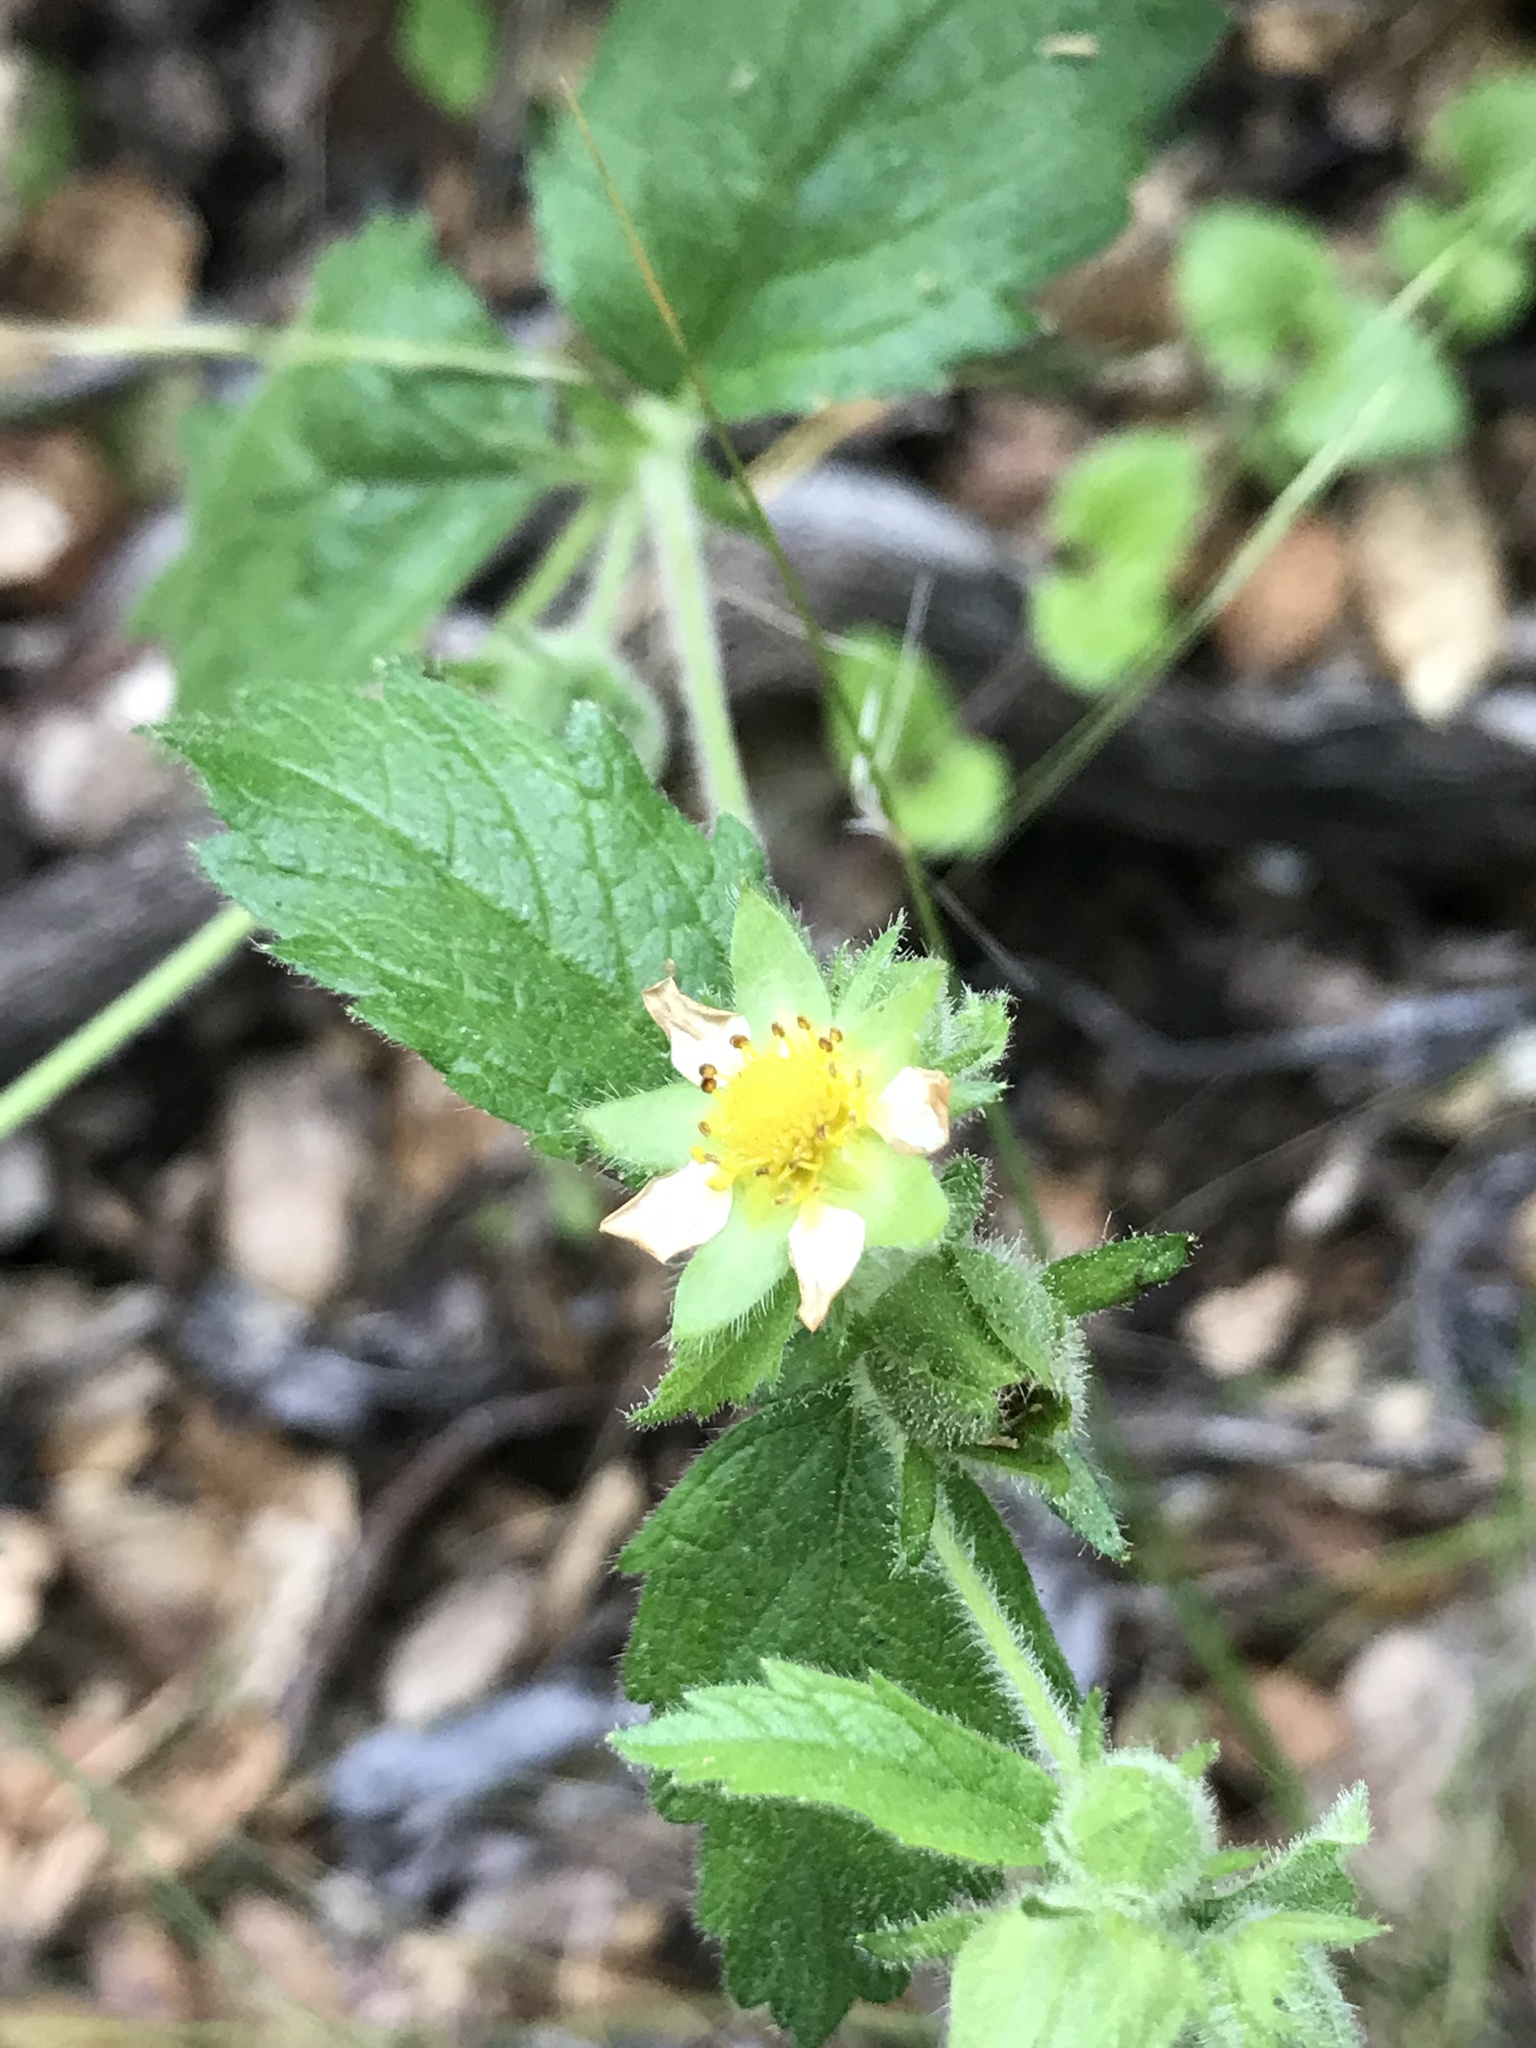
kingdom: Plantae
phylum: Tracheophyta
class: Magnoliopsida
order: Rosales
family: Rosaceae
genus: Drymocallis
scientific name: Drymocallis glandulosa
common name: Sticky cinquefoil
